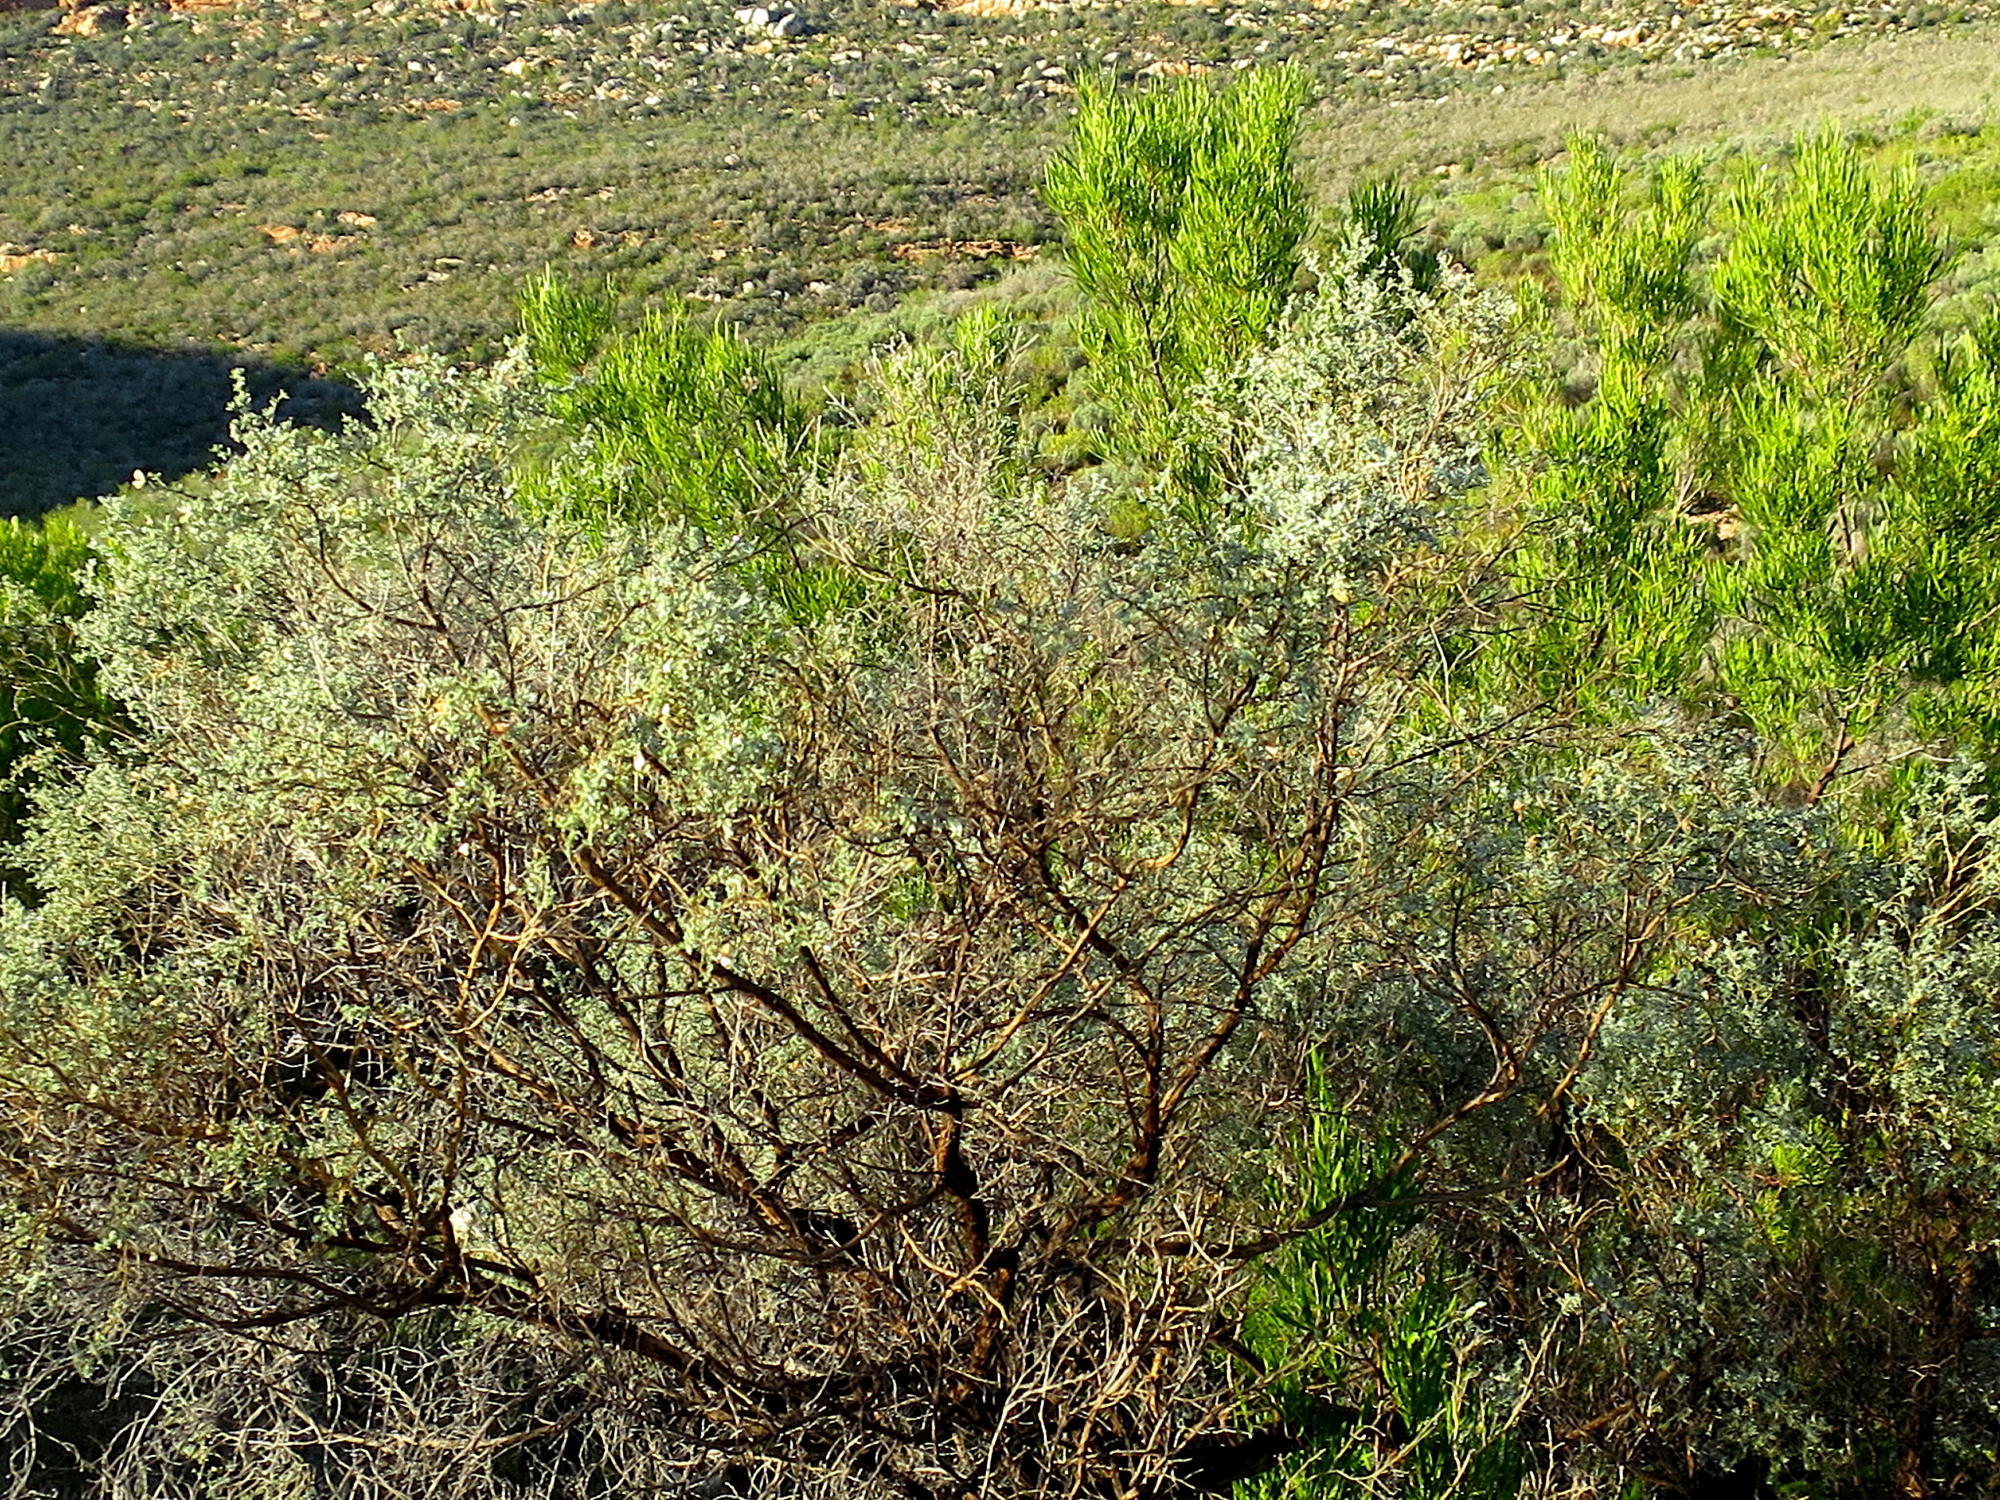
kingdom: Plantae
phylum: Tracheophyta
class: Magnoliopsida
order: Fabales
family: Fabaceae
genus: Aspalathus
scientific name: Aspalathus pedunculata
